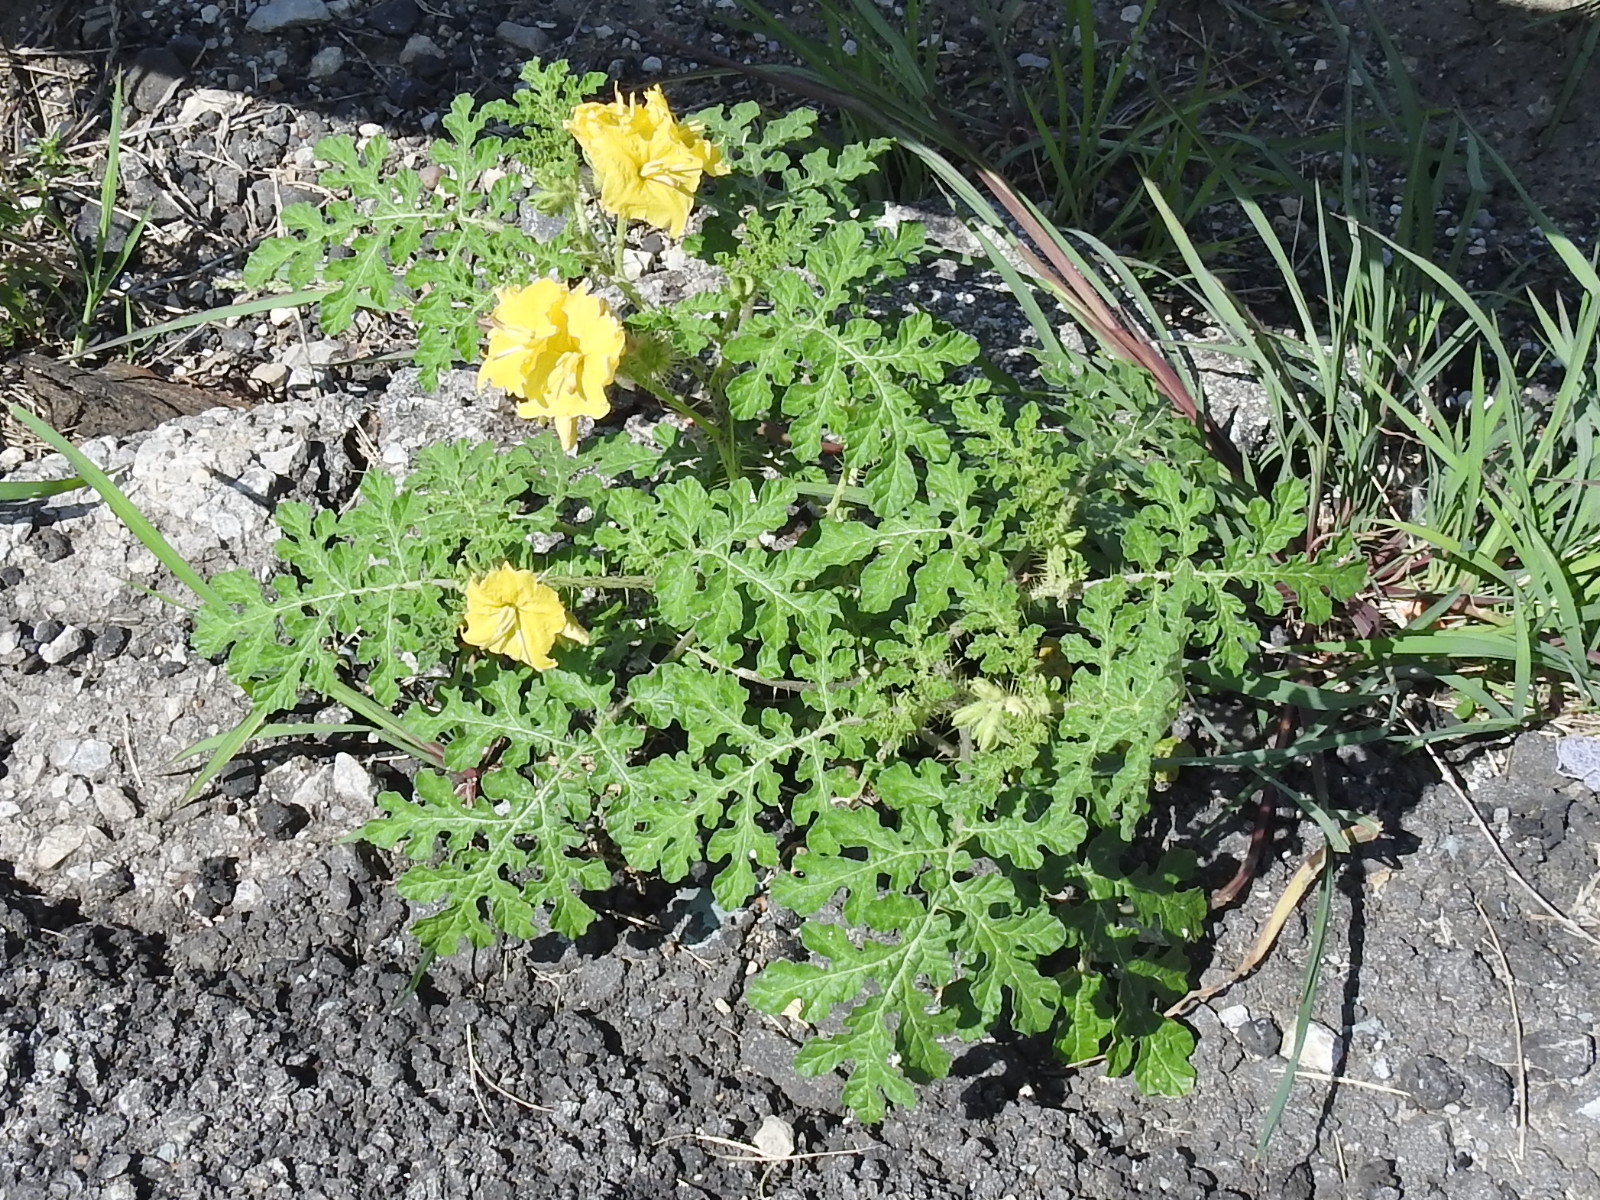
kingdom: Plantae
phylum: Tracheophyta
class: Magnoliopsida
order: Solanales
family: Solanaceae
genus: Solanum
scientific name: Solanum angustifolium
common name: Buffalobur nightshade
